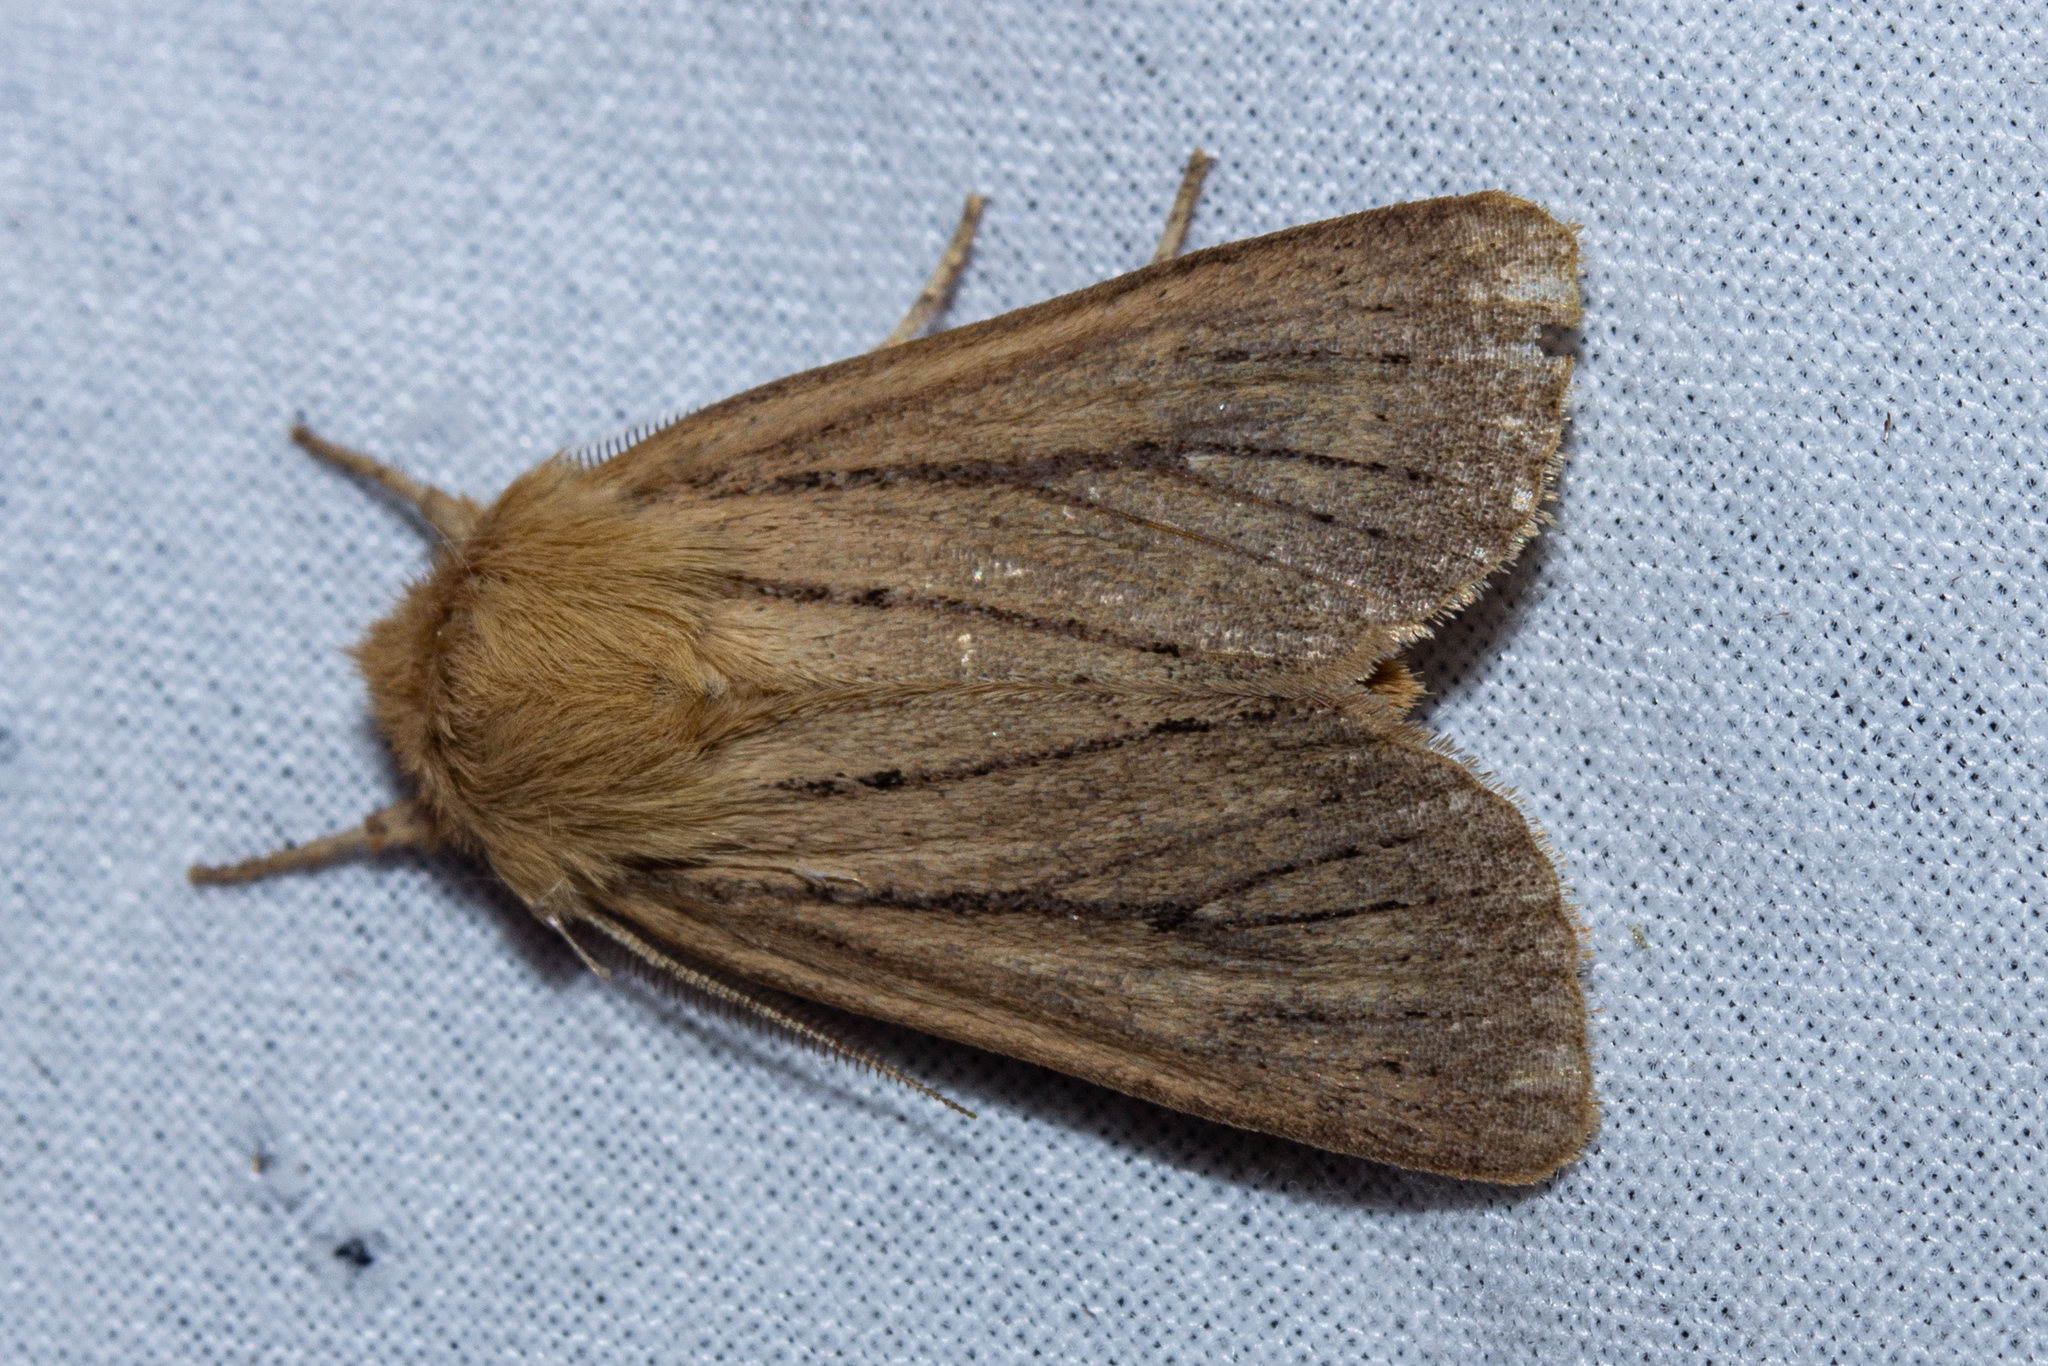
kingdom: Animalia
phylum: Arthropoda
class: Insecta
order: Lepidoptera
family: Noctuidae
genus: Ichneutica
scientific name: Ichneutica
